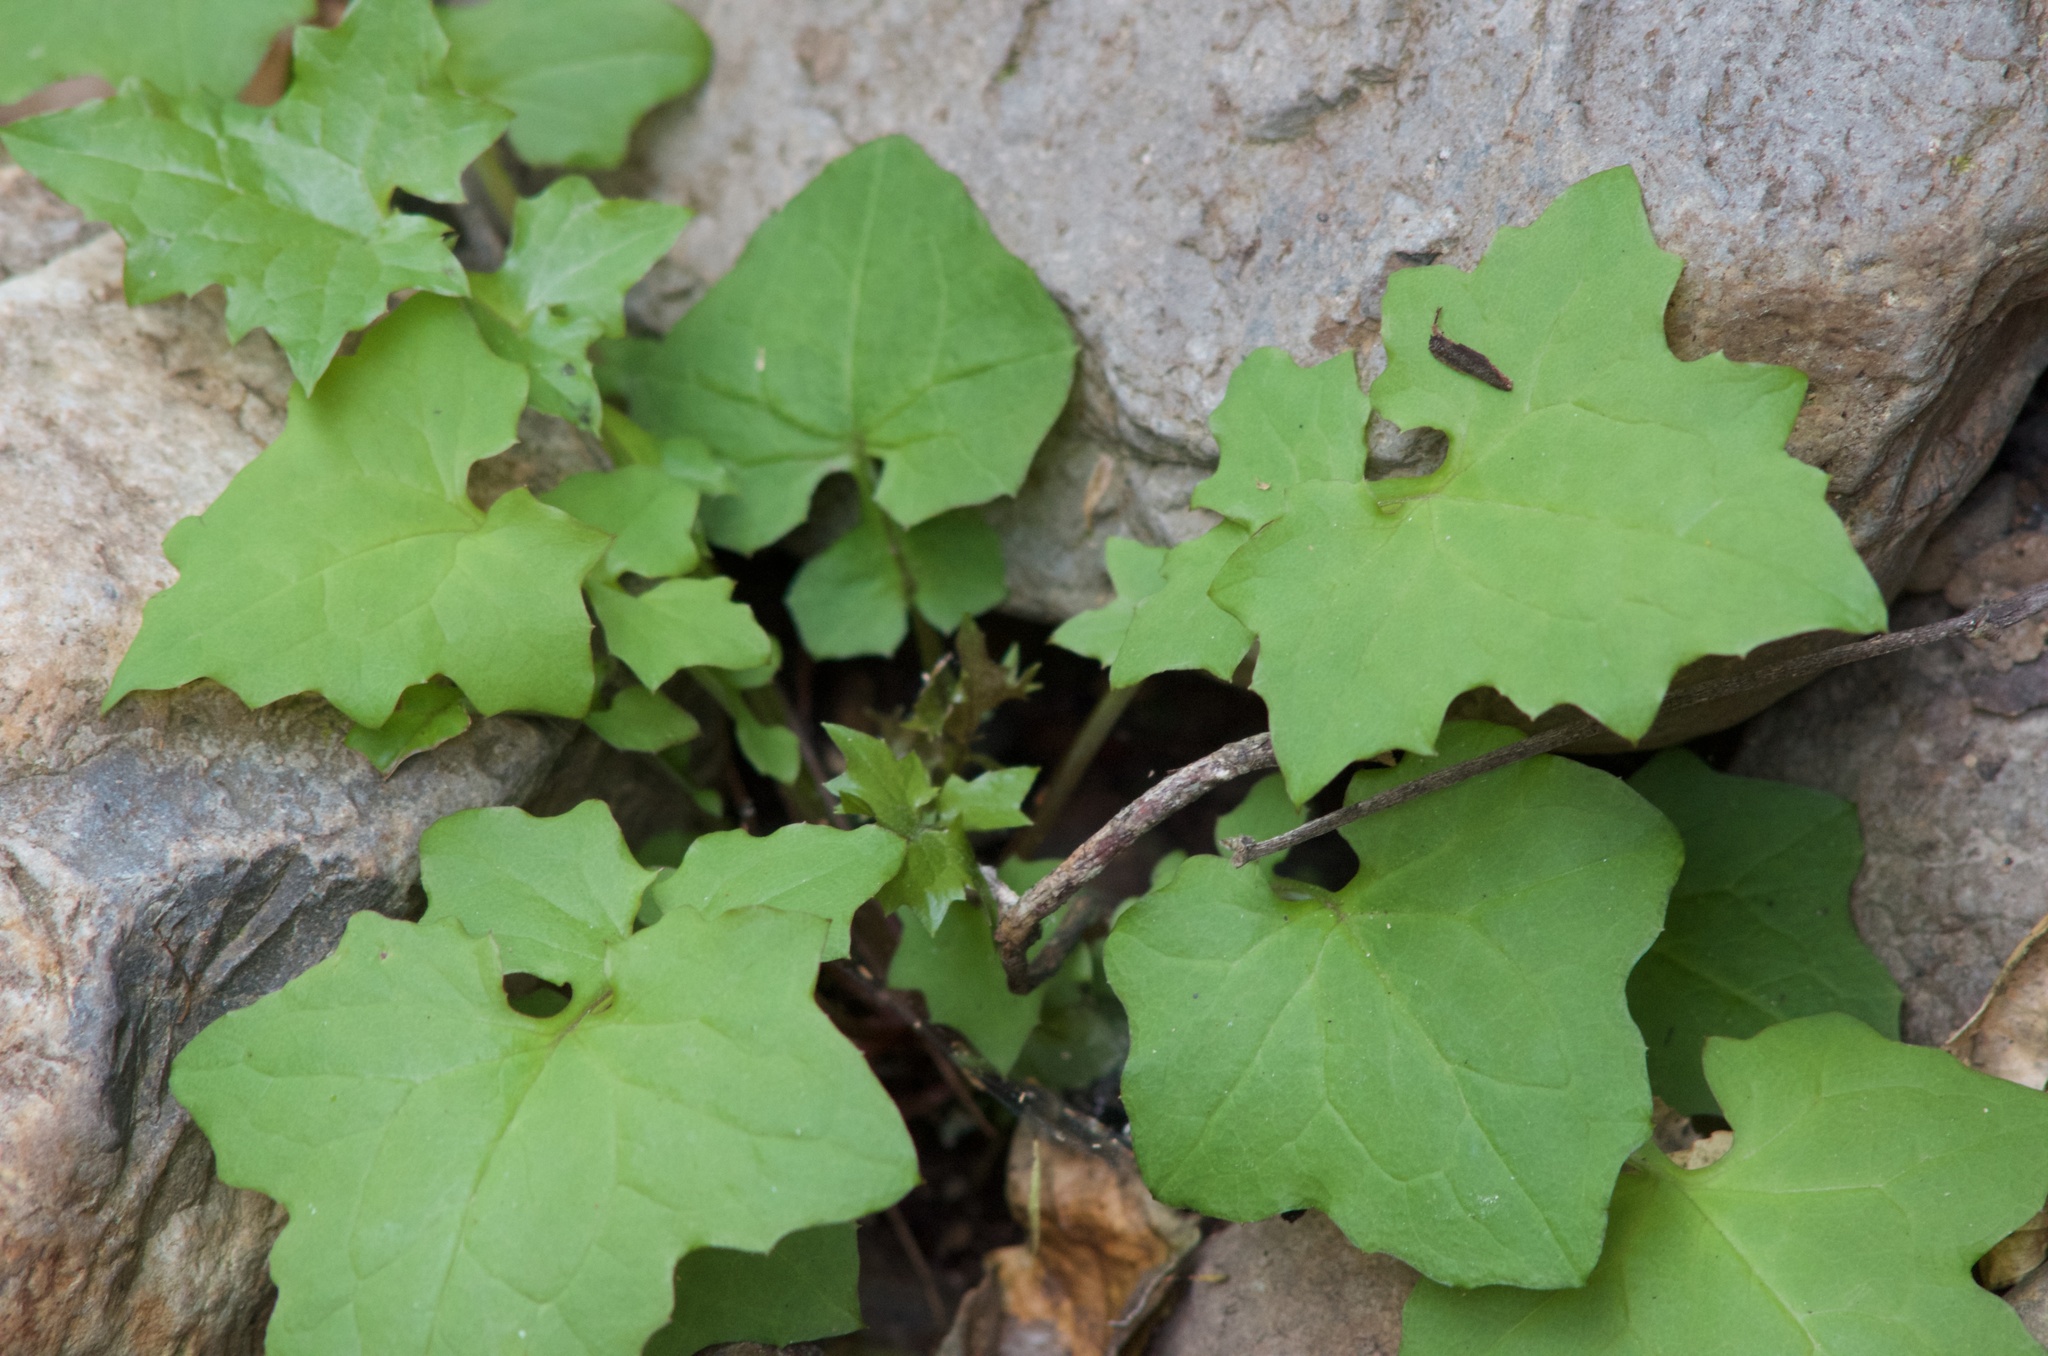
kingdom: Plantae
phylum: Tracheophyta
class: Magnoliopsida
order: Asterales
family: Asteraceae
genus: Mycelis
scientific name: Mycelis muralis
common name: Wall lettuce
